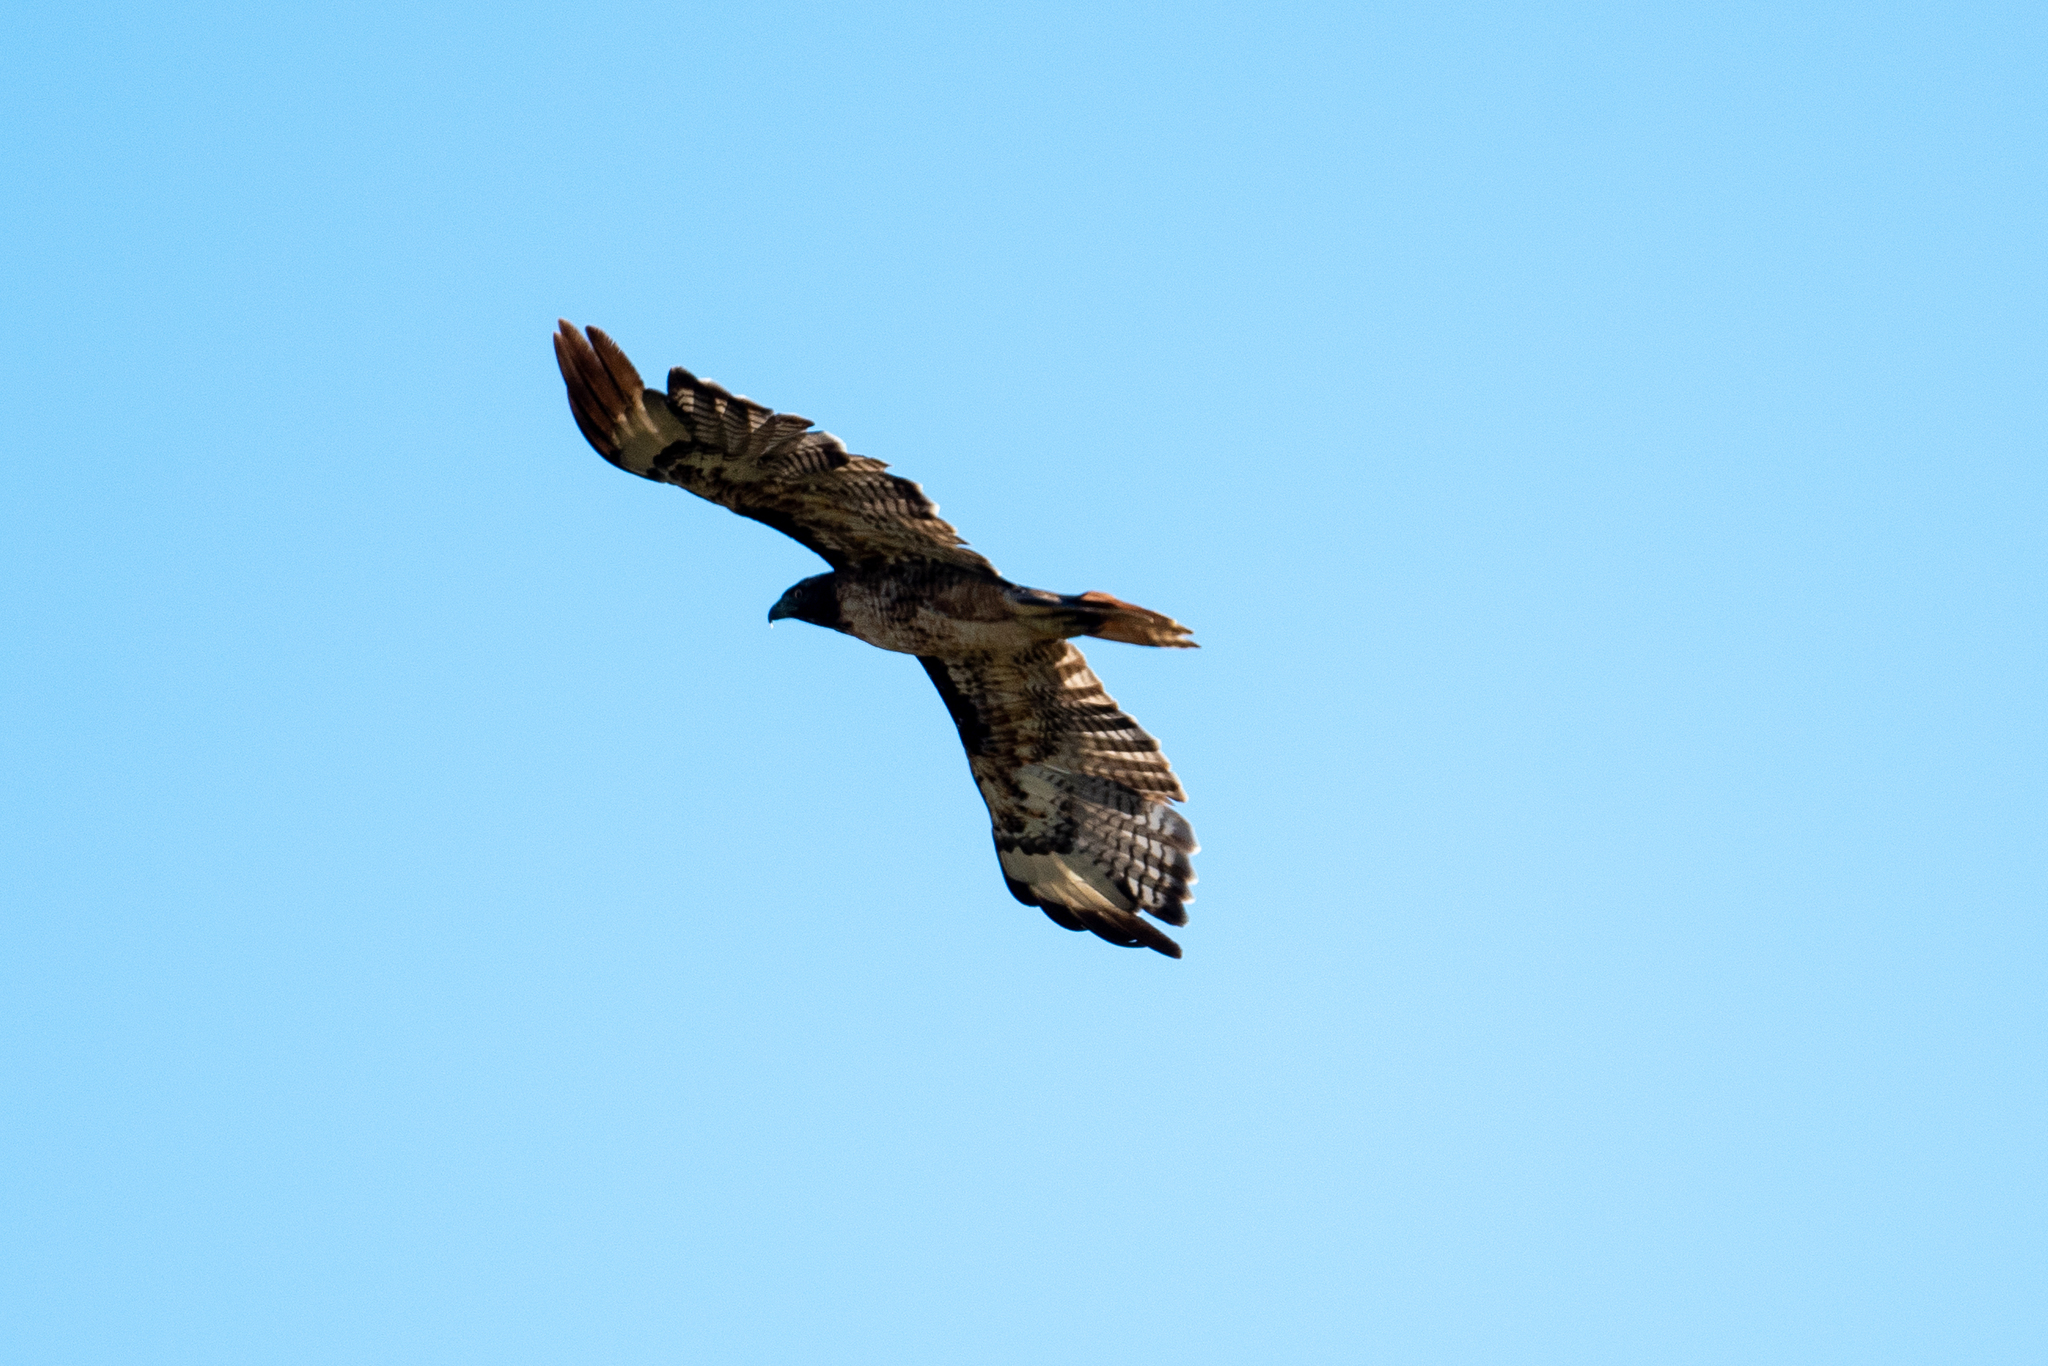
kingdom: Animalia
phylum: Chordata
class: Aves
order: Accipitriformes
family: Accipitridae
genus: Buteo
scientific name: Buteo jamaicensis
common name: Red-tailed hawk
